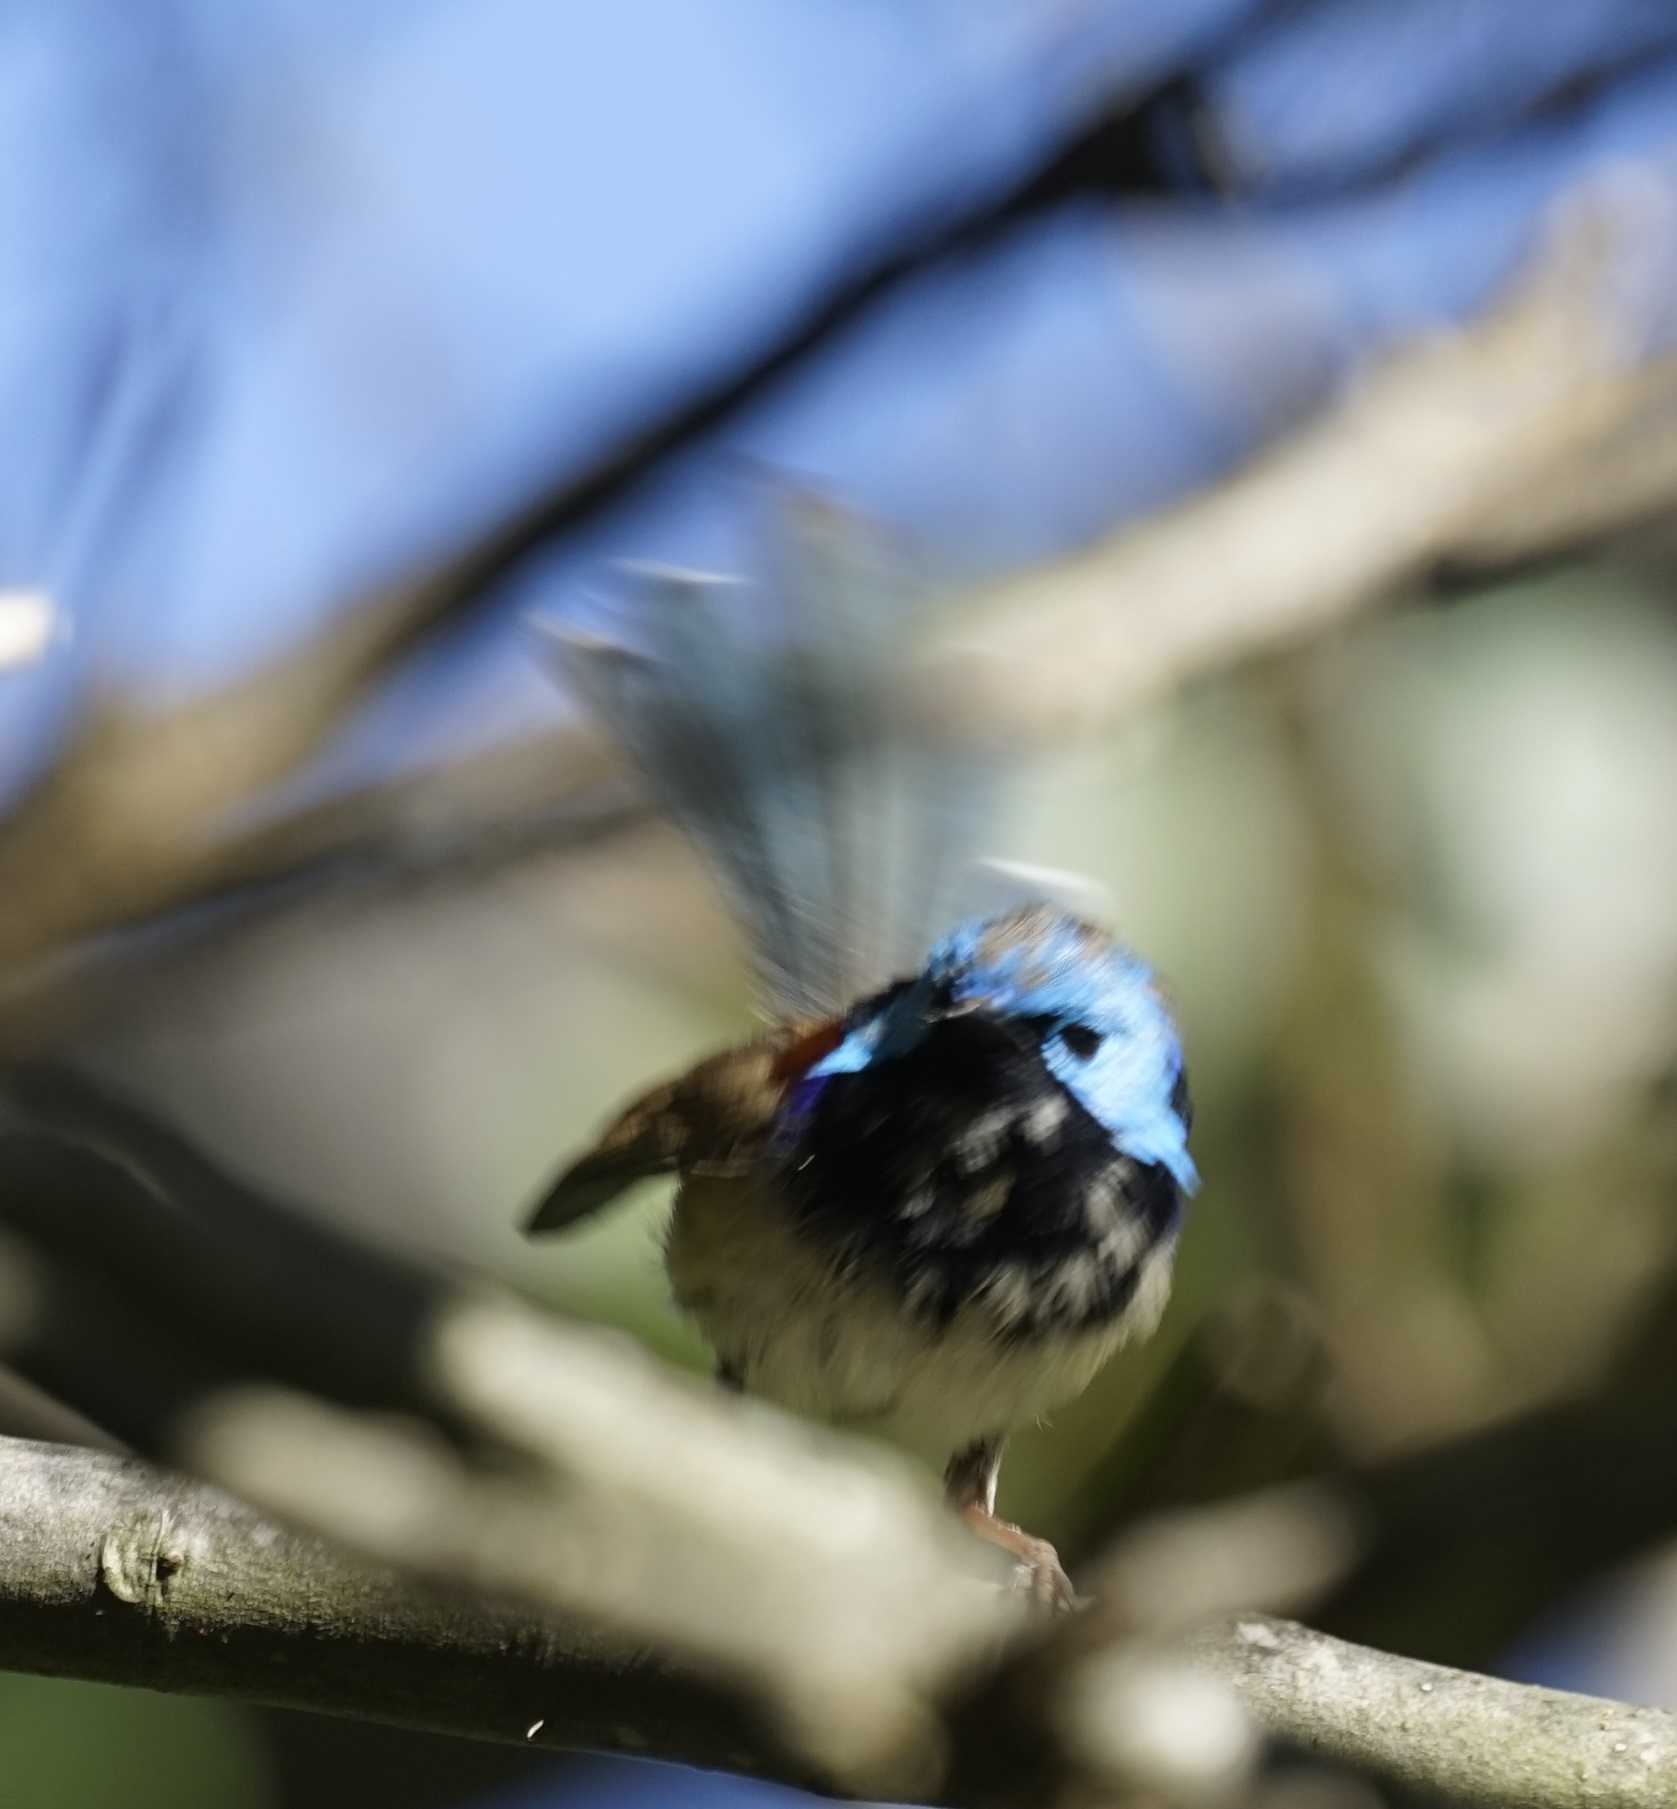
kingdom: Animalia
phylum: Chordata
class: Aves
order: Passeriformes
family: Maluridae
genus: Malurus
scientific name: Malurus lamberti
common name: Variegated fairywren
